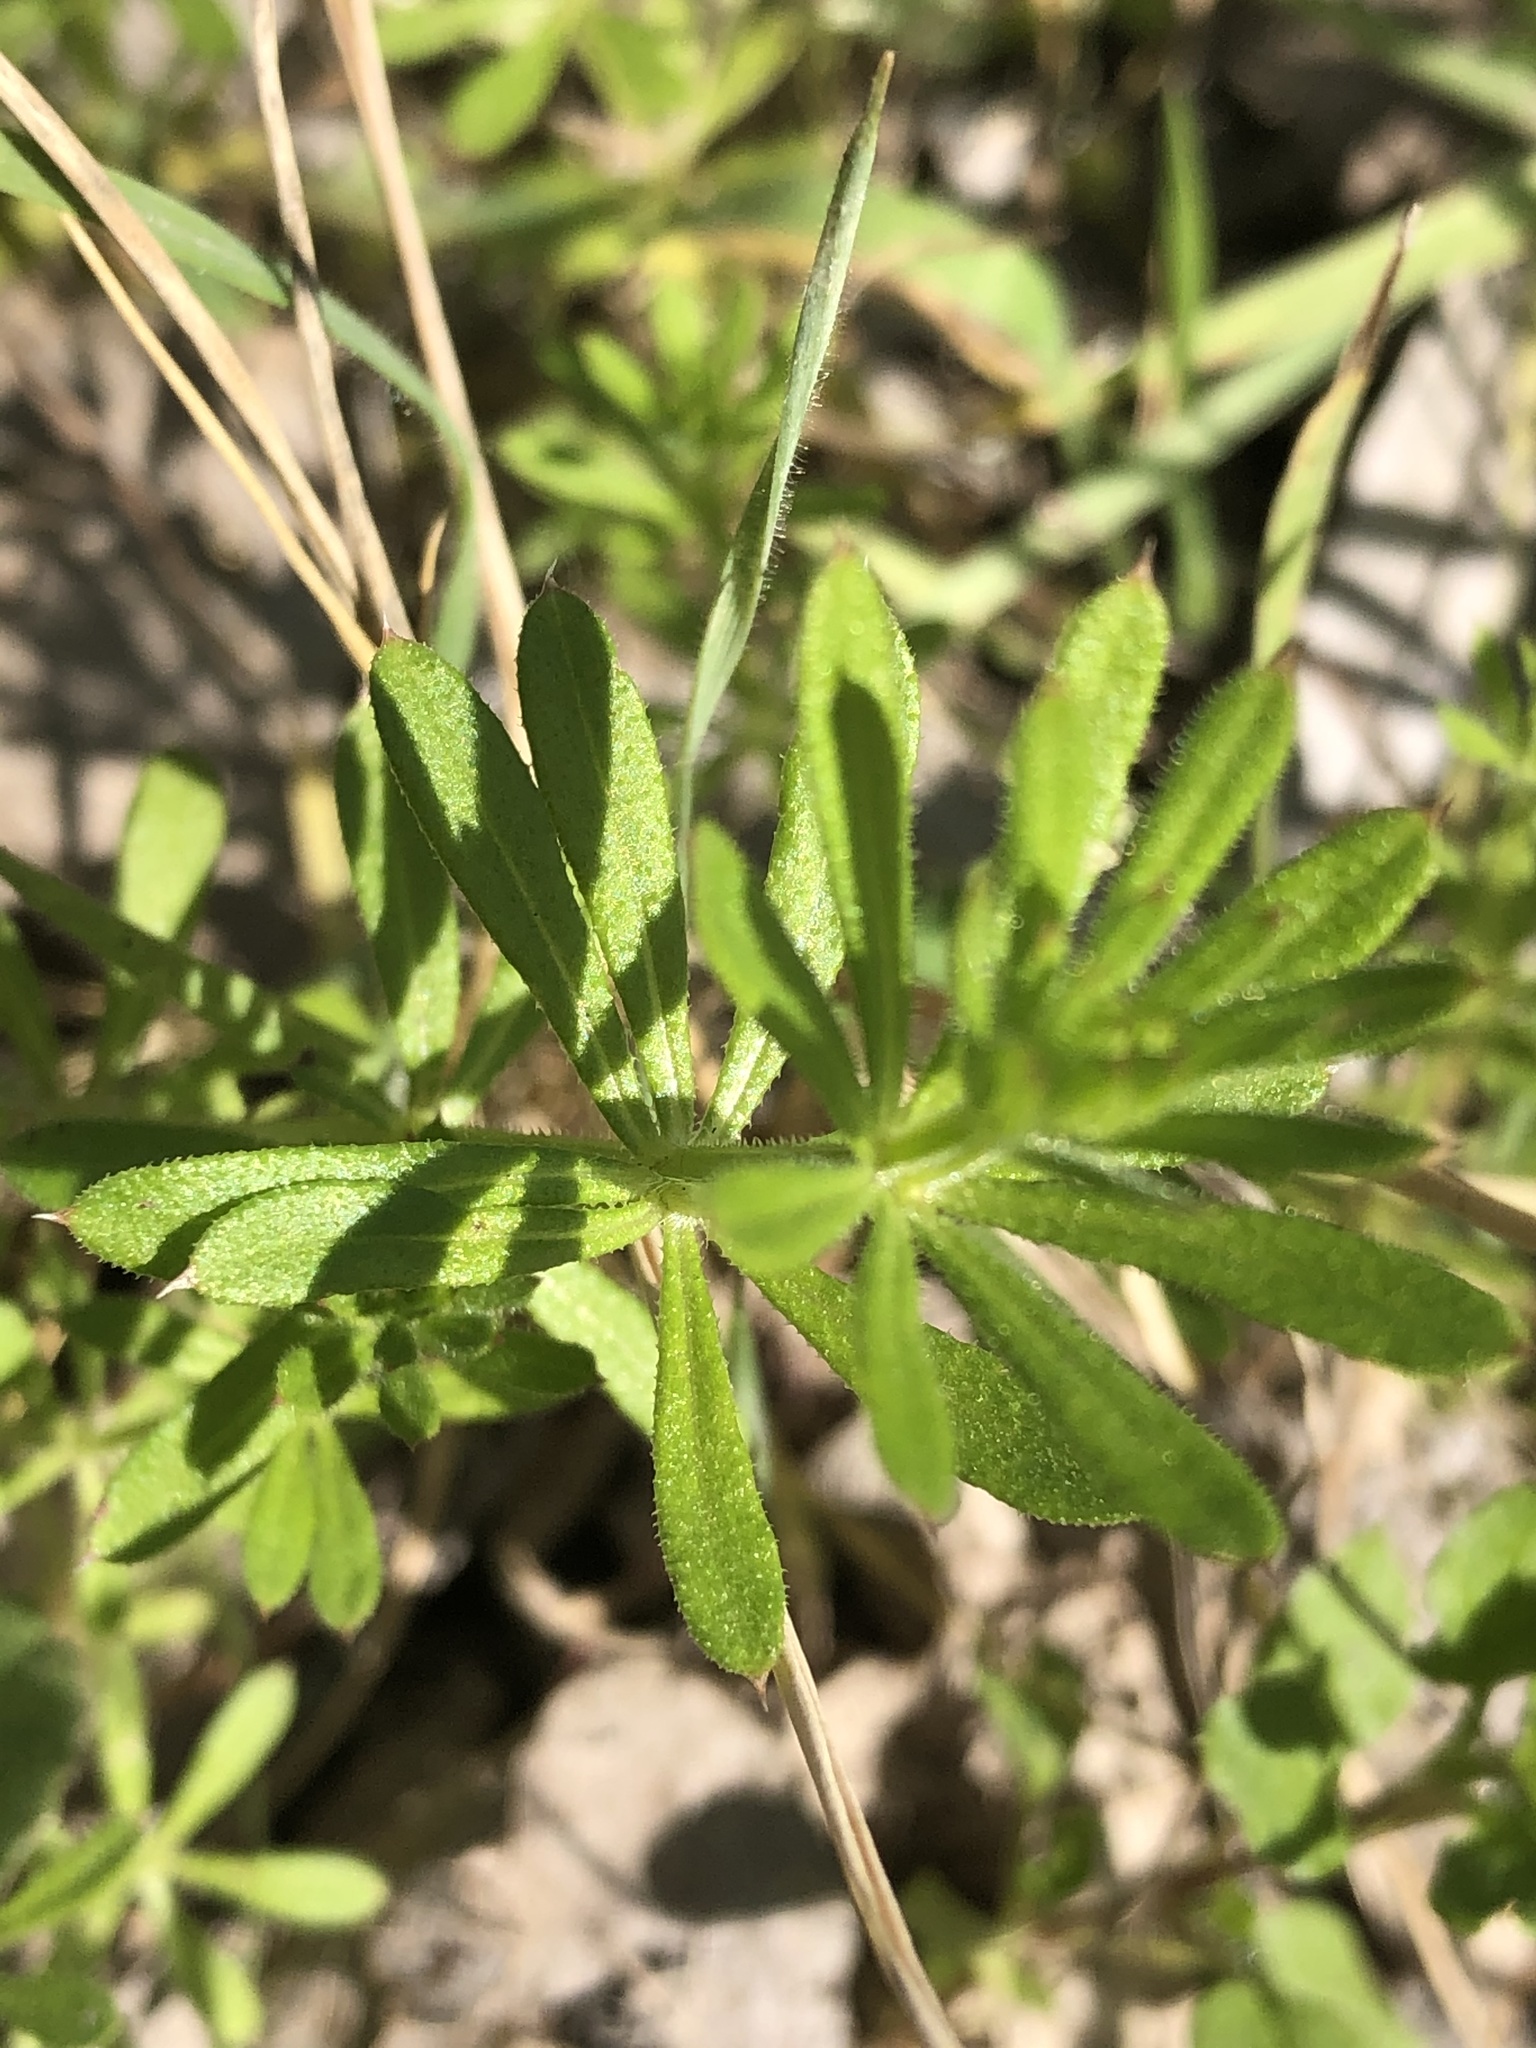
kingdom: Plantae
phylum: Tracheophyta
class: Magnoliopsida
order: Gentianales
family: Rubiaceae
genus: Galium
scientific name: Galium aparine
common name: Cleavers
